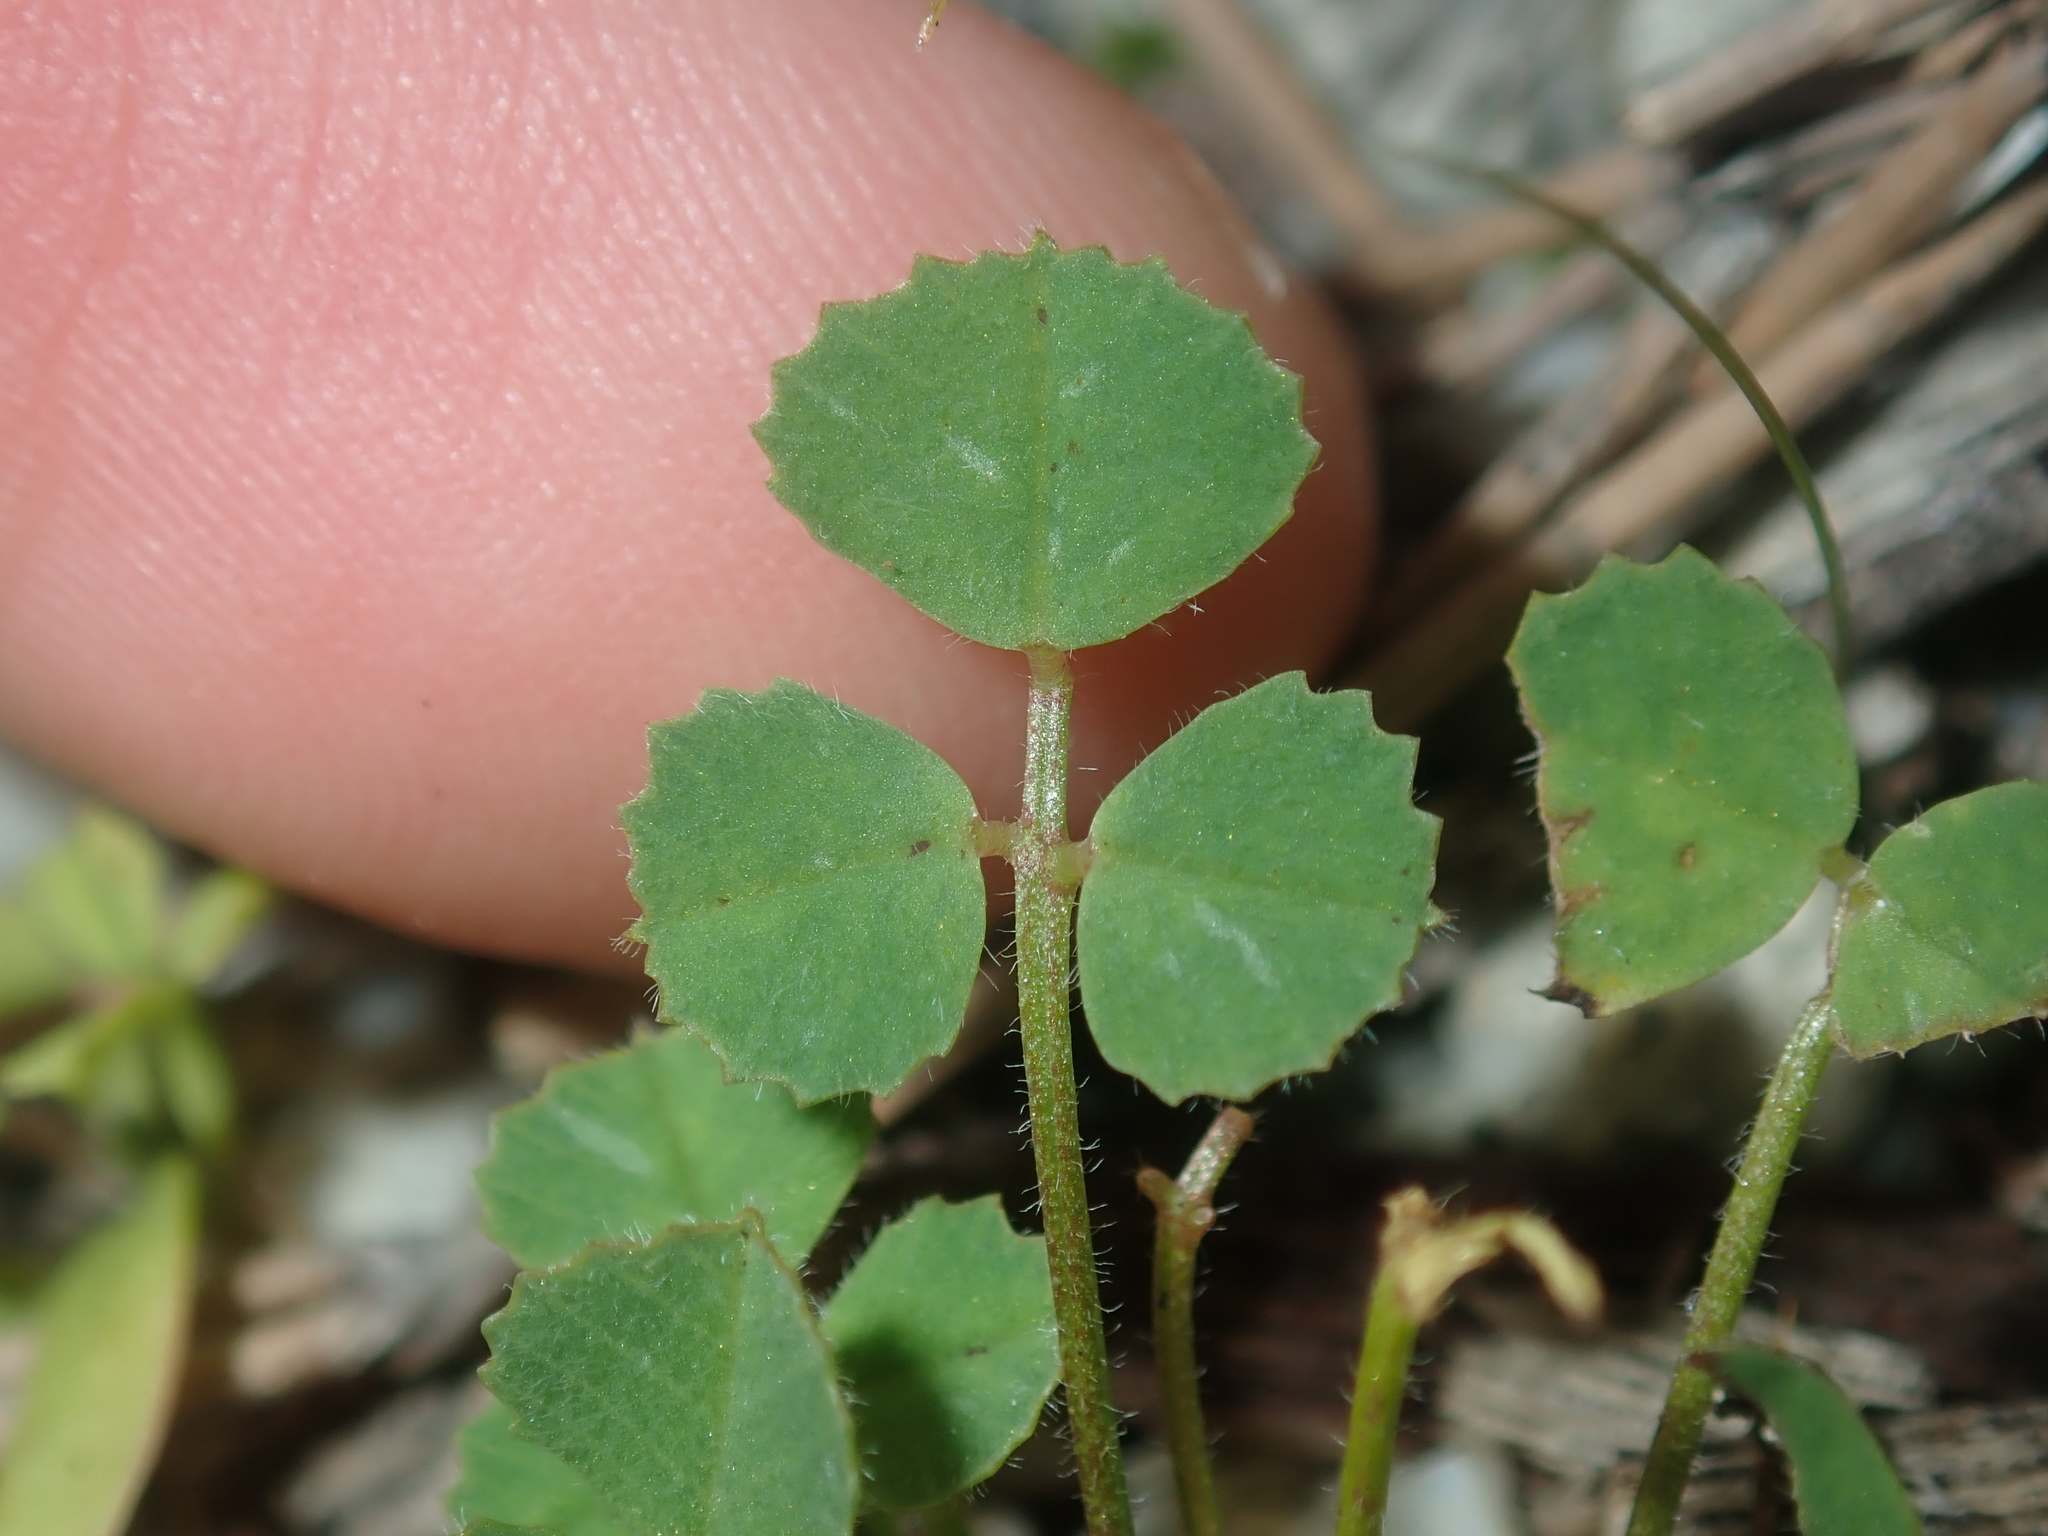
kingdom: Plantae
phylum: Tracheophyta
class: Magnoliopsida
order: Fabales
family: Fabaceae
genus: Medicago
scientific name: Medicago truncatula
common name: Strong-spined medick
